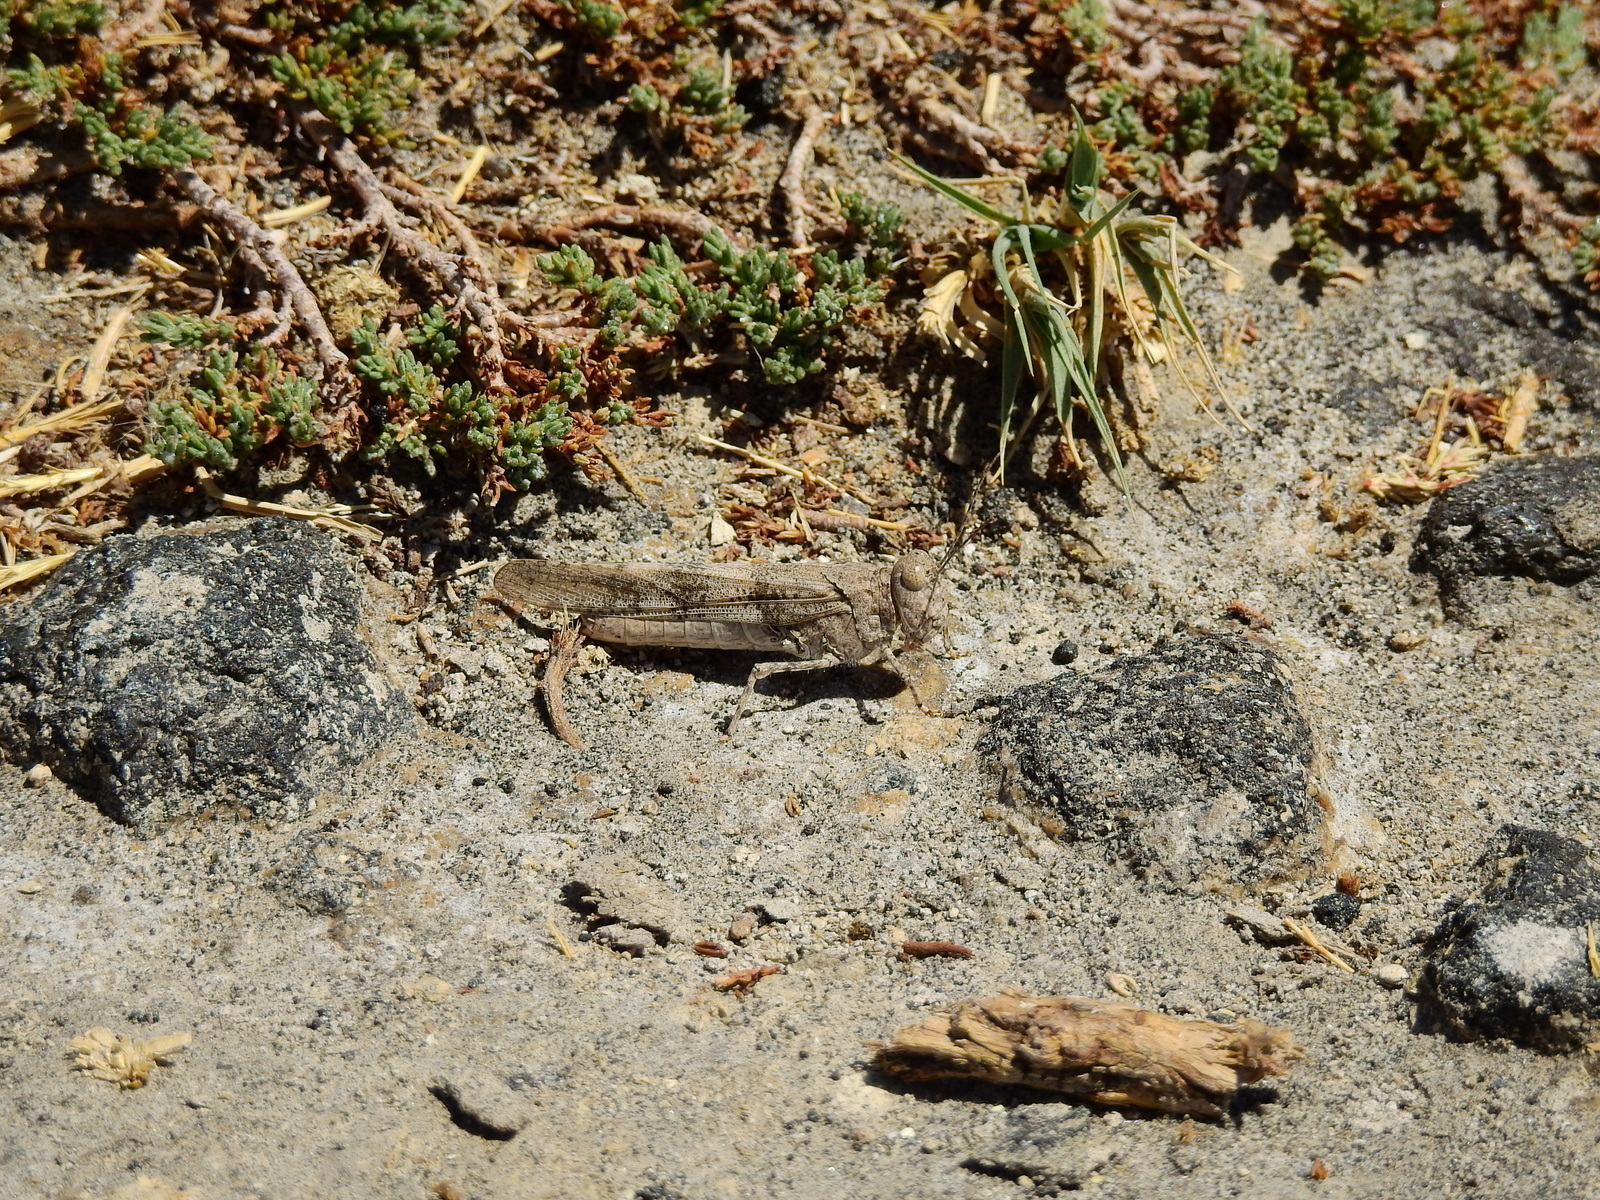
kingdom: Animalia
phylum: Arthropoda
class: Insecta
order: Orthoptera
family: Acrididae
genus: Trimerotropis
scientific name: Trimerotropis pallidipennis
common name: Pallid-winged grasshopper
